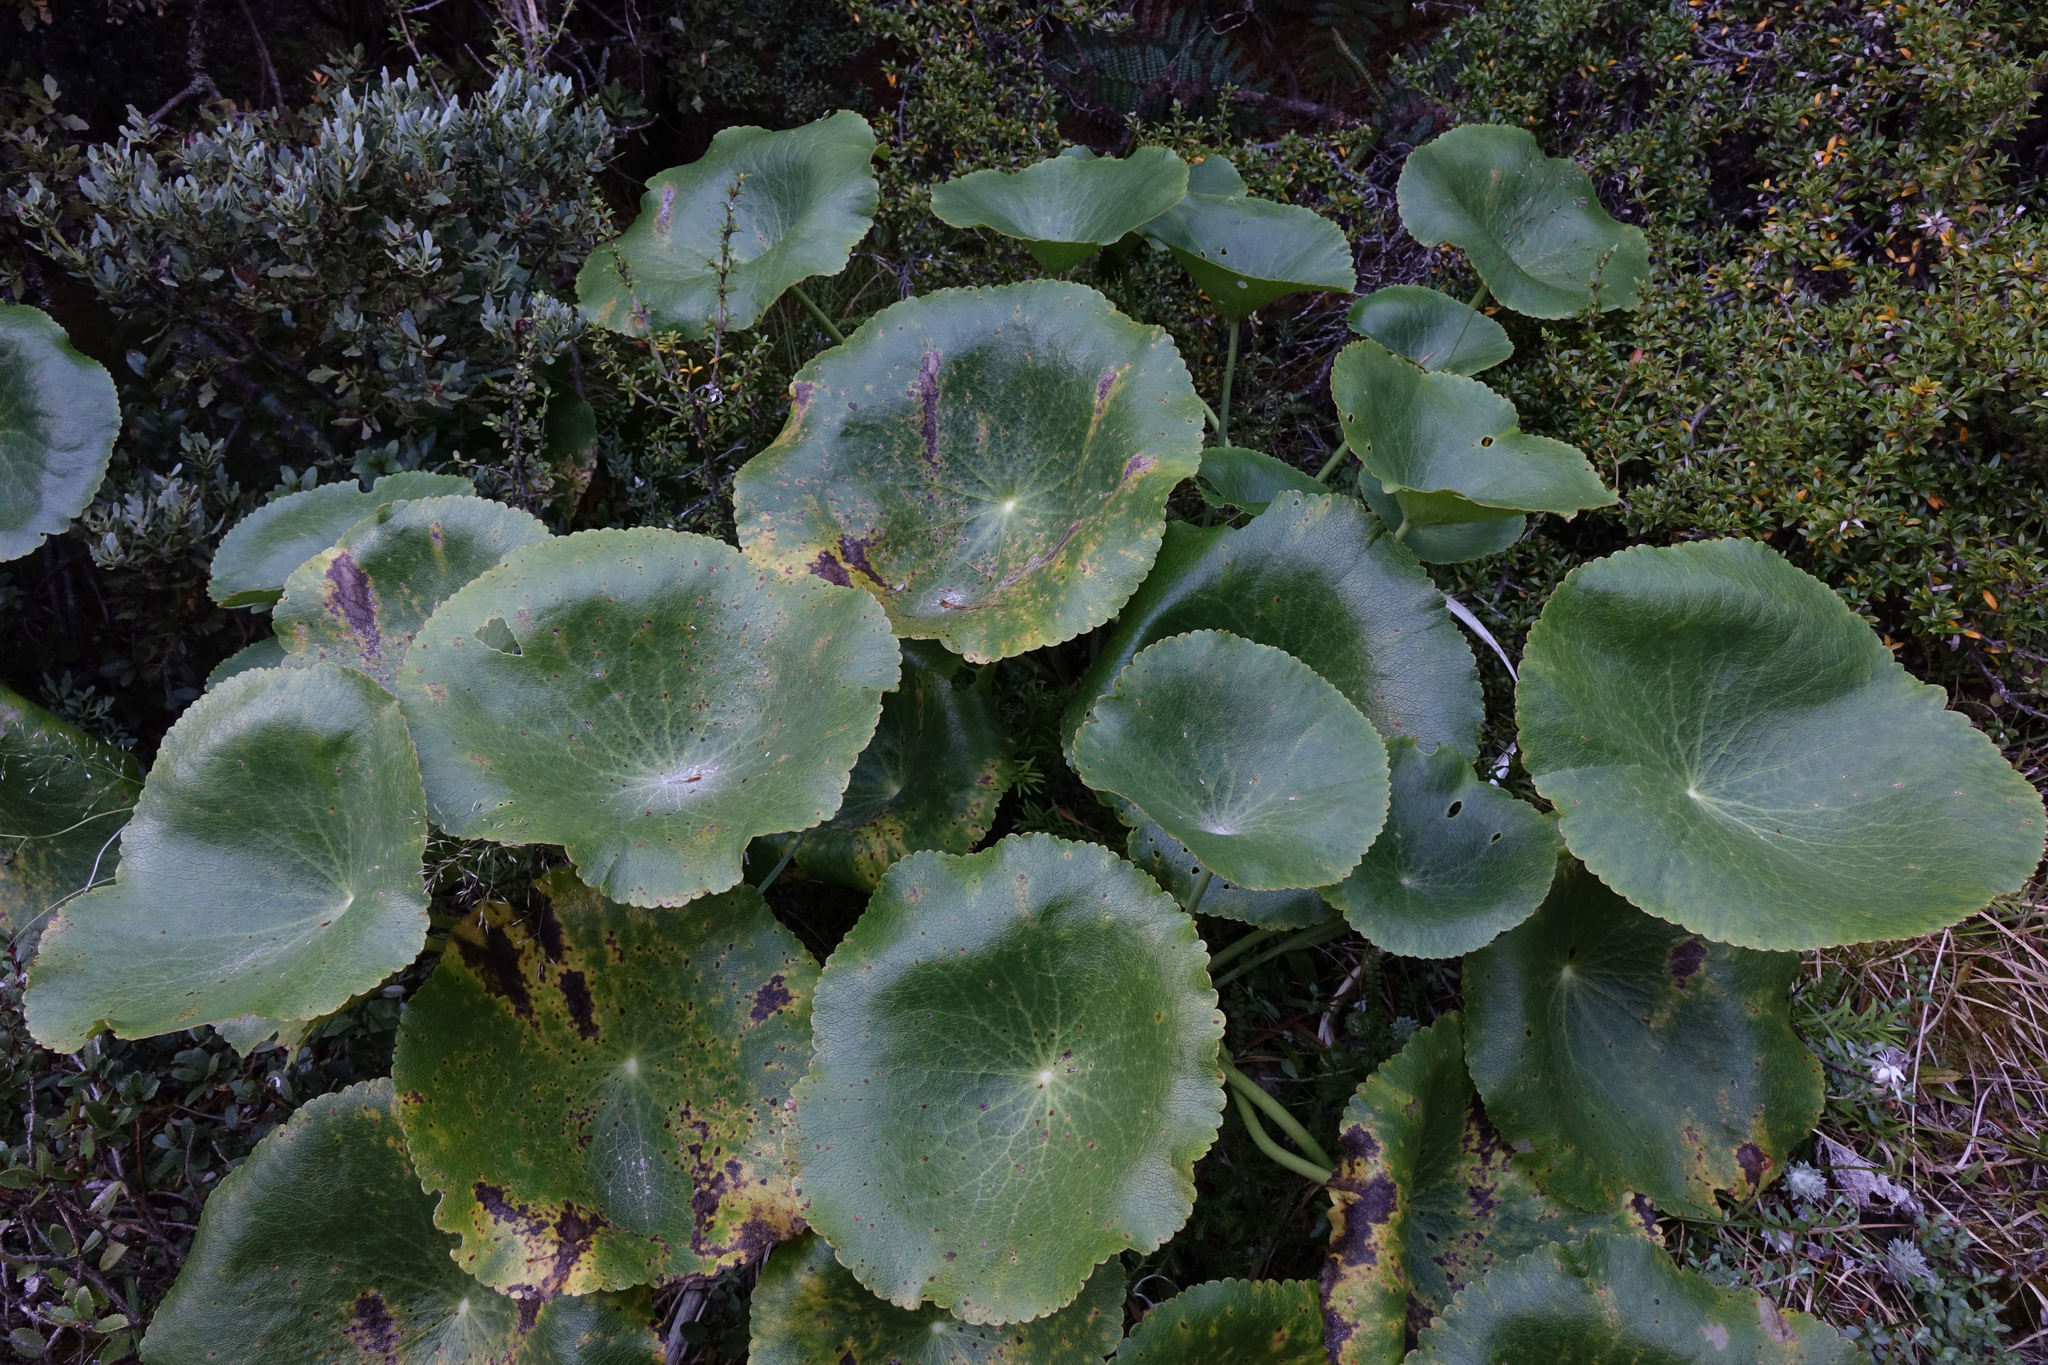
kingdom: Plantae
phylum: Tracheophyta
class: Magnoliopsida
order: Ranunculales
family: Ranunculaceae
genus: Ranunculus
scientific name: Ranunculus lyallii
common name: Mountain-lily
